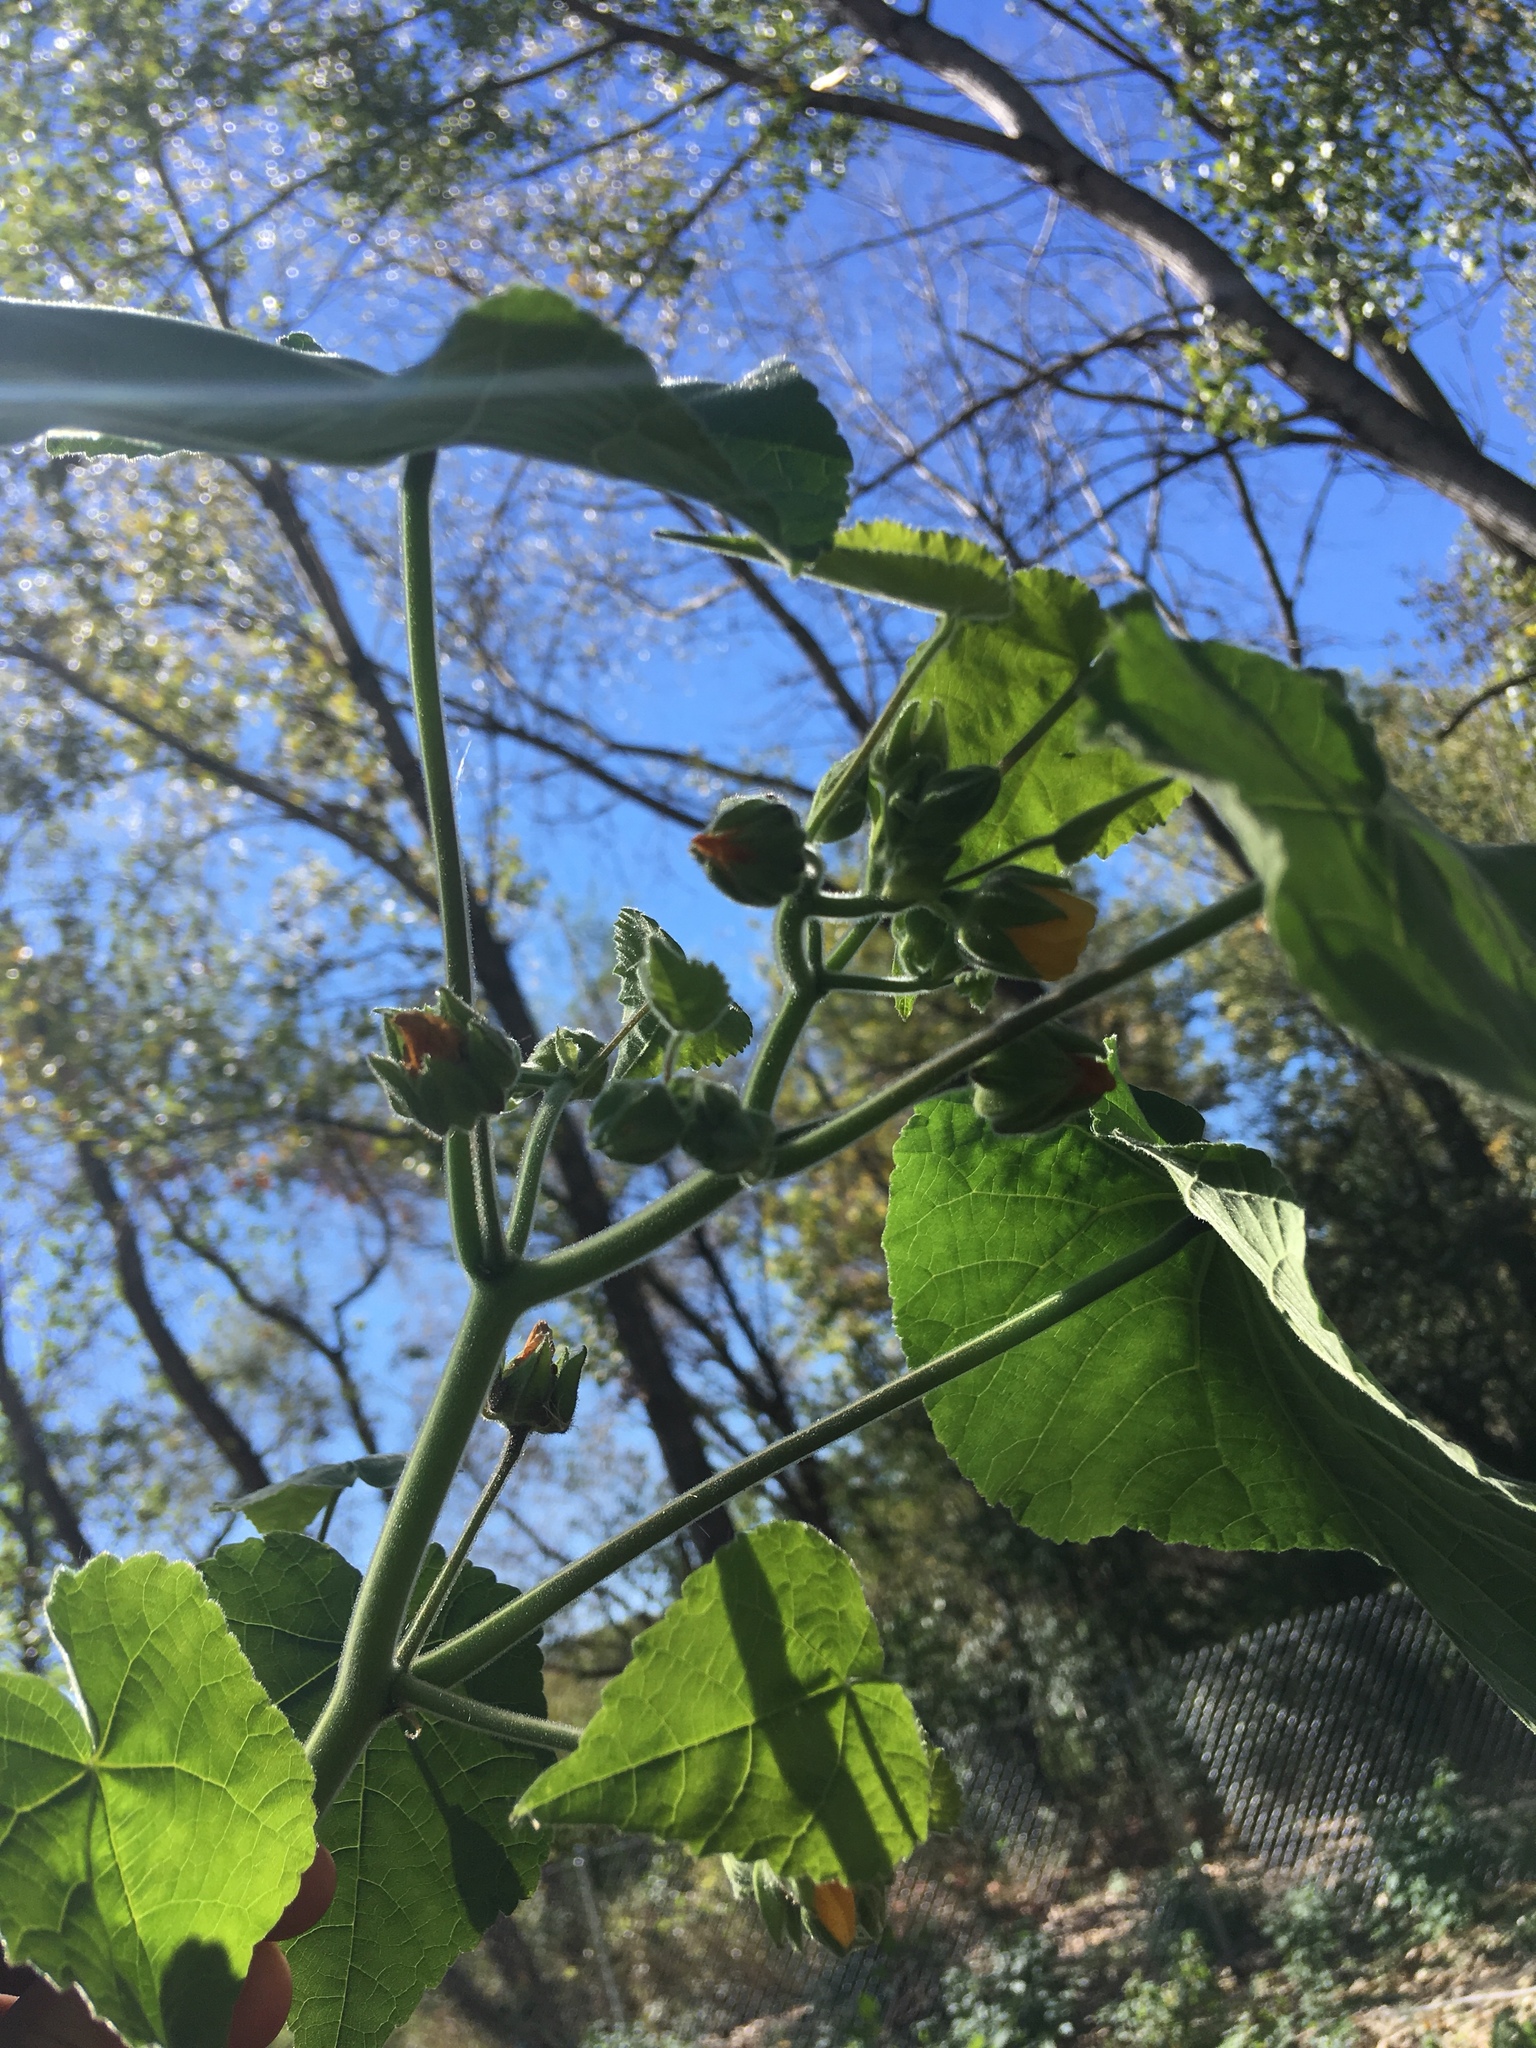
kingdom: Plantae
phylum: Tracheophyta
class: Magnoliopsida
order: Malvales
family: Malvaceae
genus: Abutilon
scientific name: Abutilon theophrasti
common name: Velvetleaf
